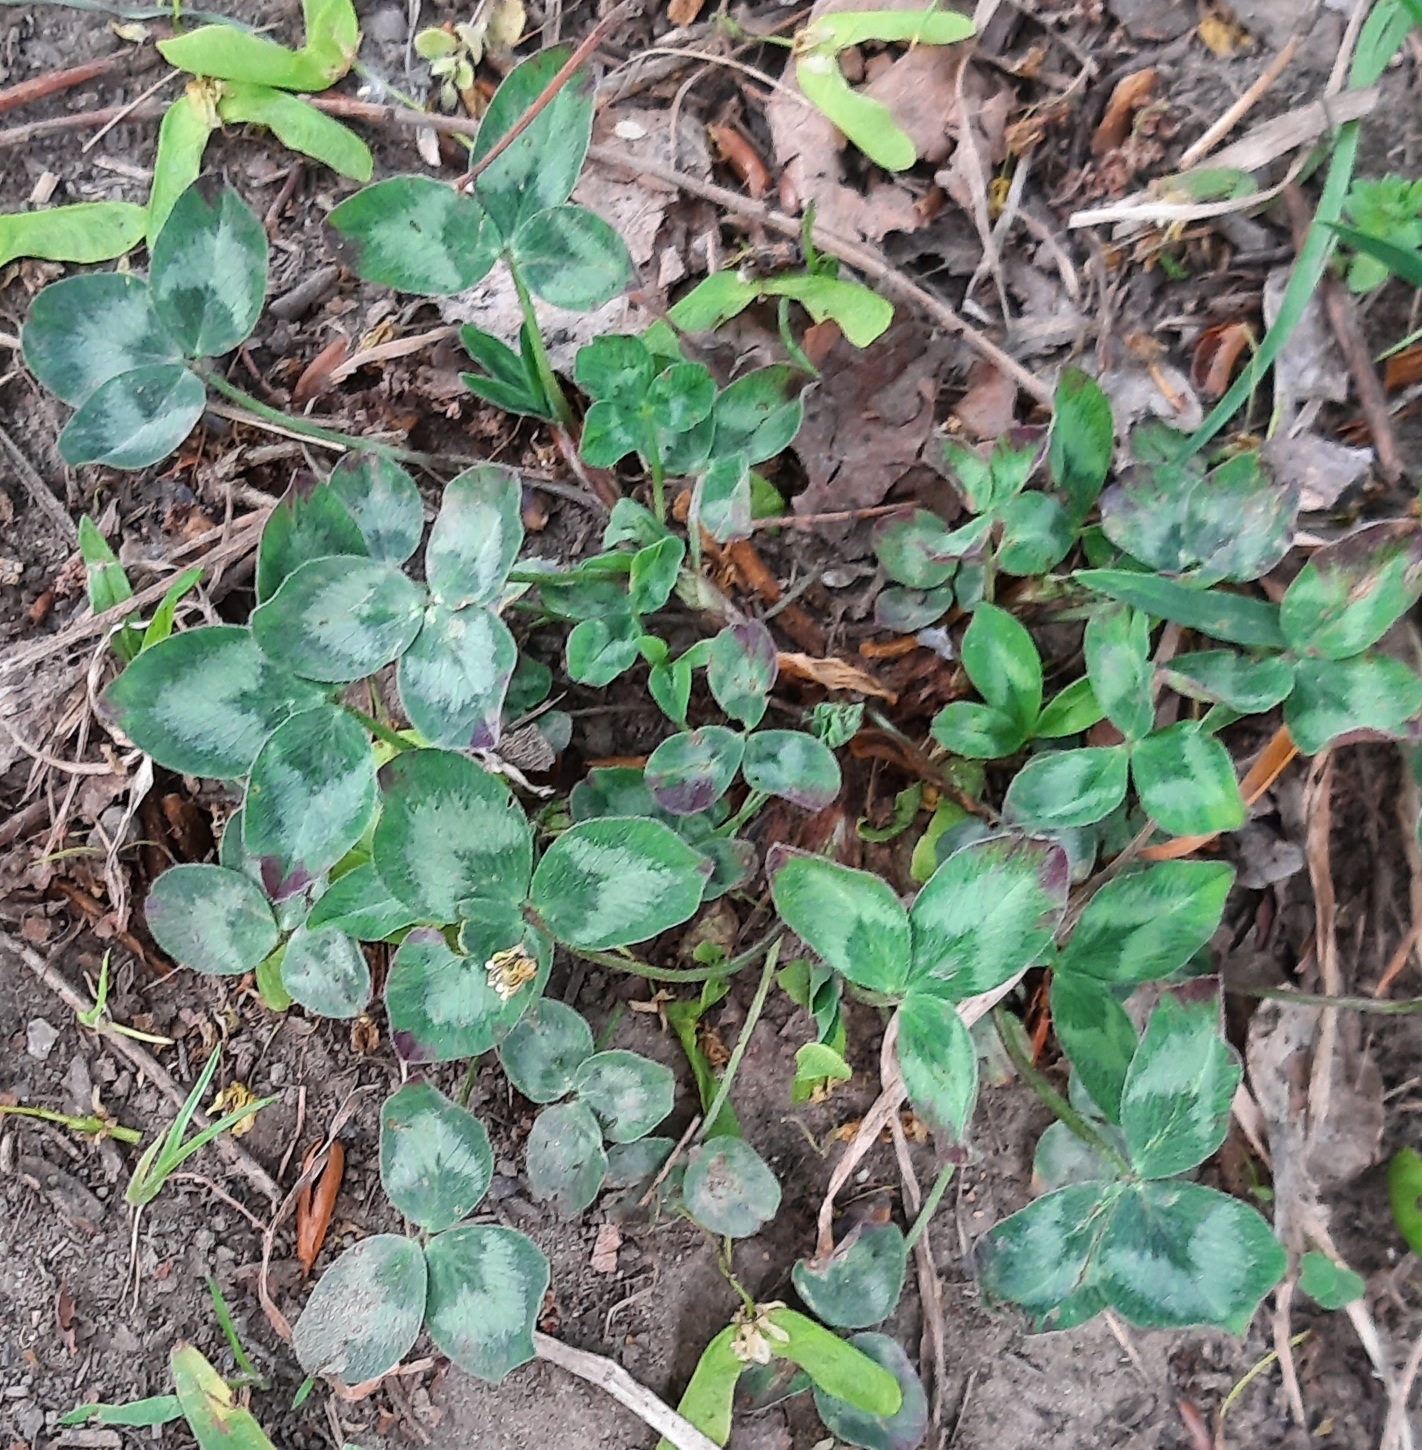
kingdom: Plantae
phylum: Tracheophyta
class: Magnoliopsida
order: Fabales
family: Fabaceae
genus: Trifolium
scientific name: Trifolium pratense
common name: Red clover
